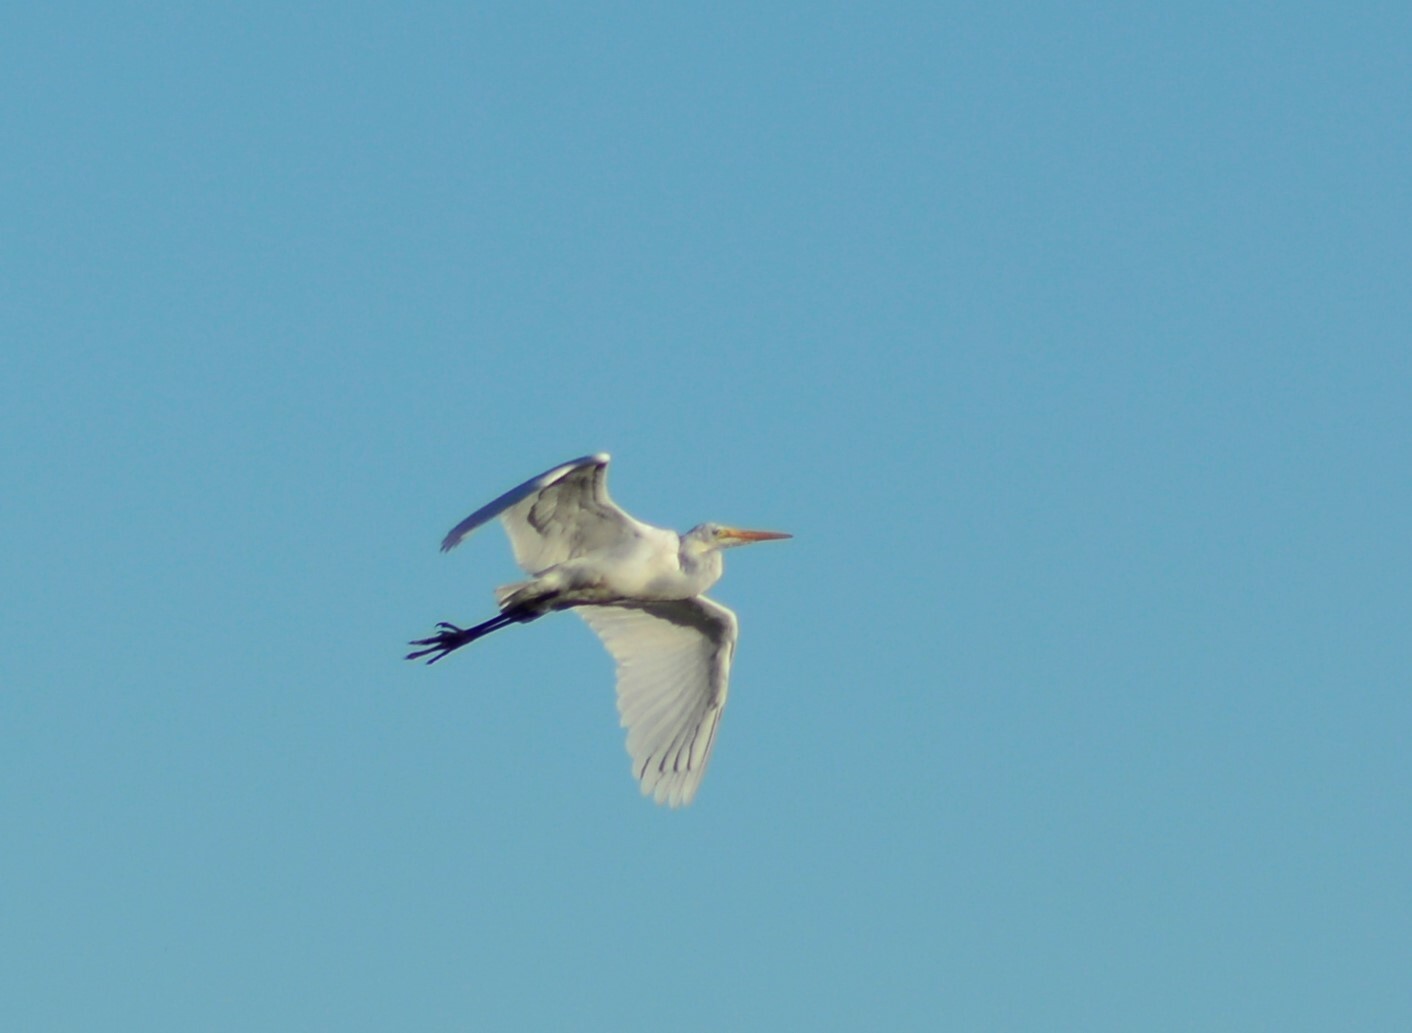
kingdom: Animalia
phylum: Chordata
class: Aves
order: Pelecaniformes
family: Ardeidae
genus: Ardea
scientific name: Ardea alba
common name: Great egret
